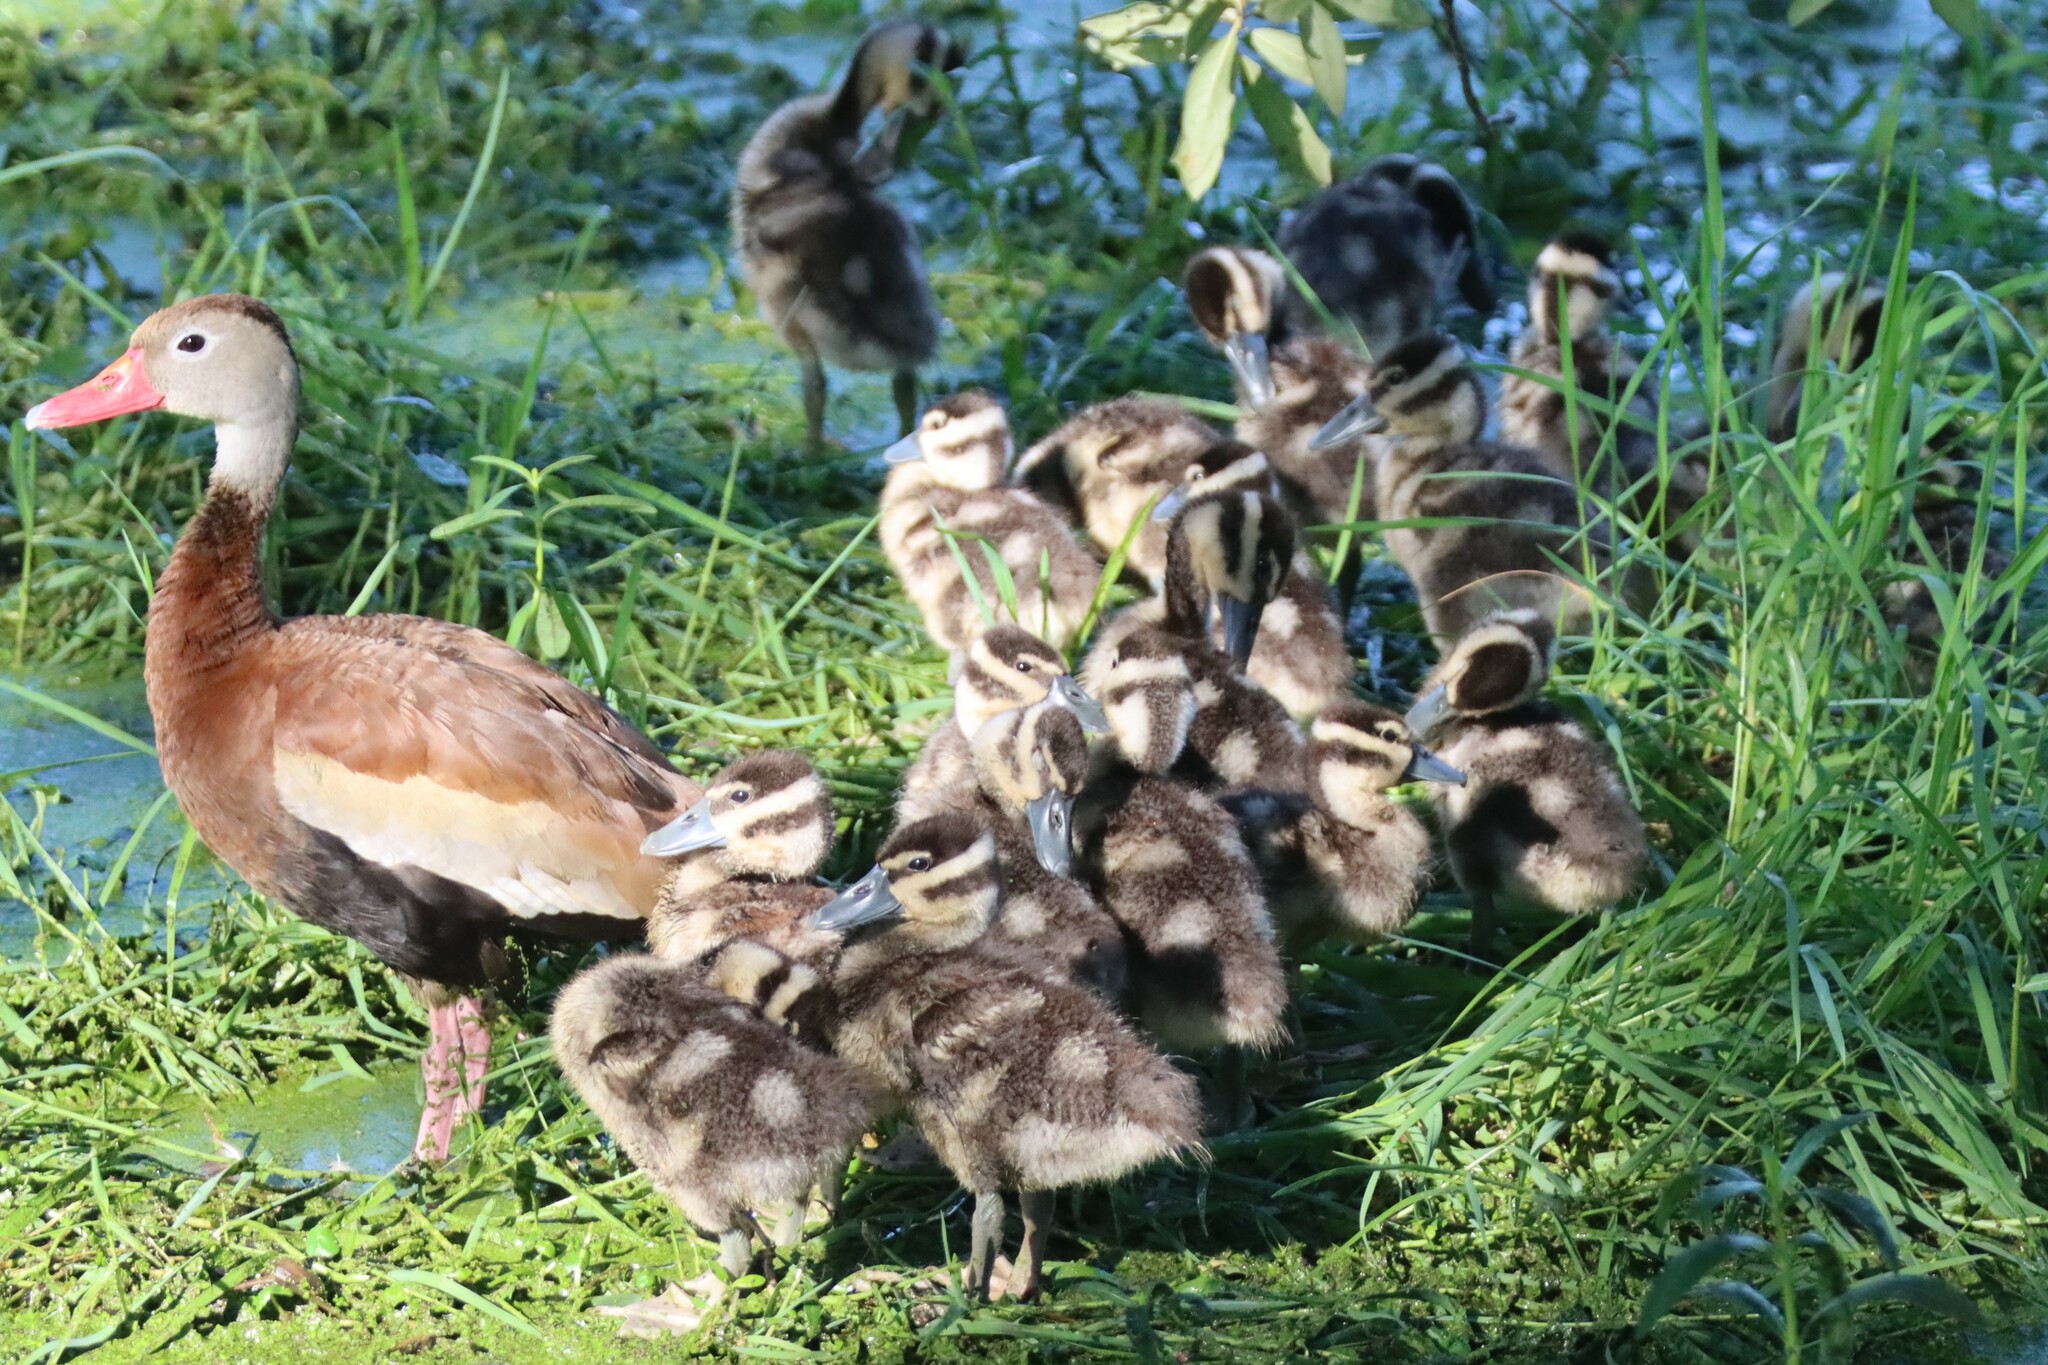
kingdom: Animalia
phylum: Chordata
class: Aves
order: Anseriformes
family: Anatidae
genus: Dendrocygna
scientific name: Dendrocygna autumnalis
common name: Black-bellied whistling duck
